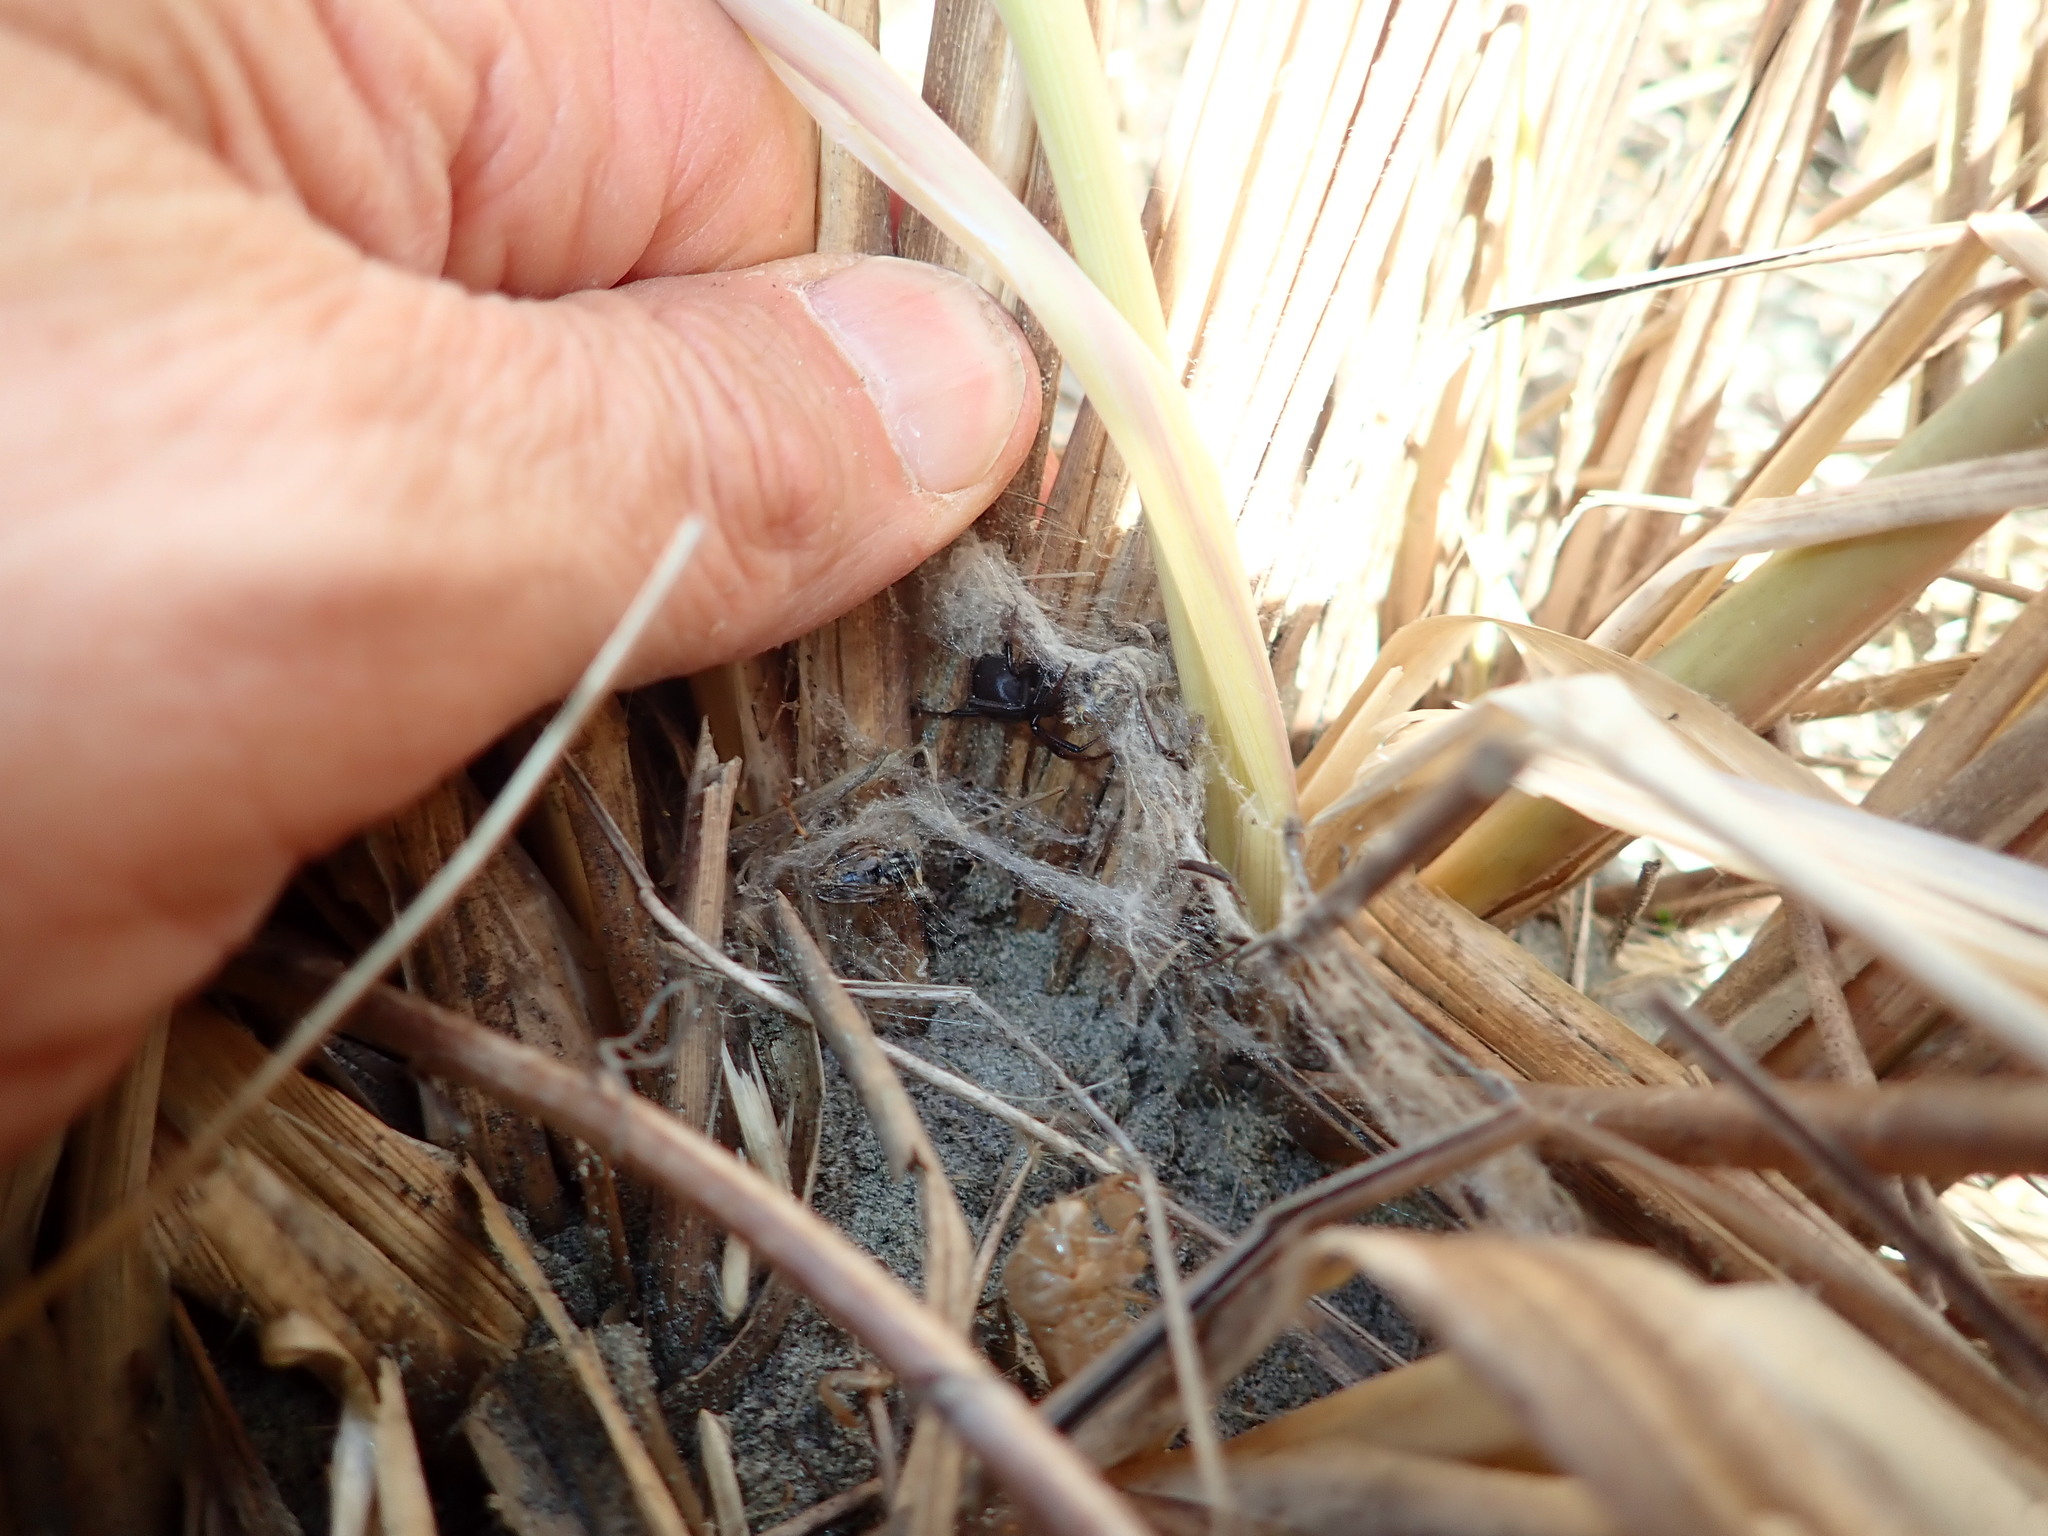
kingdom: Animalia
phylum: Arthropoda
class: Arachnida
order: Araneae
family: Theridiidae
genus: Latrodectus
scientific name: Latrodectus katipo
